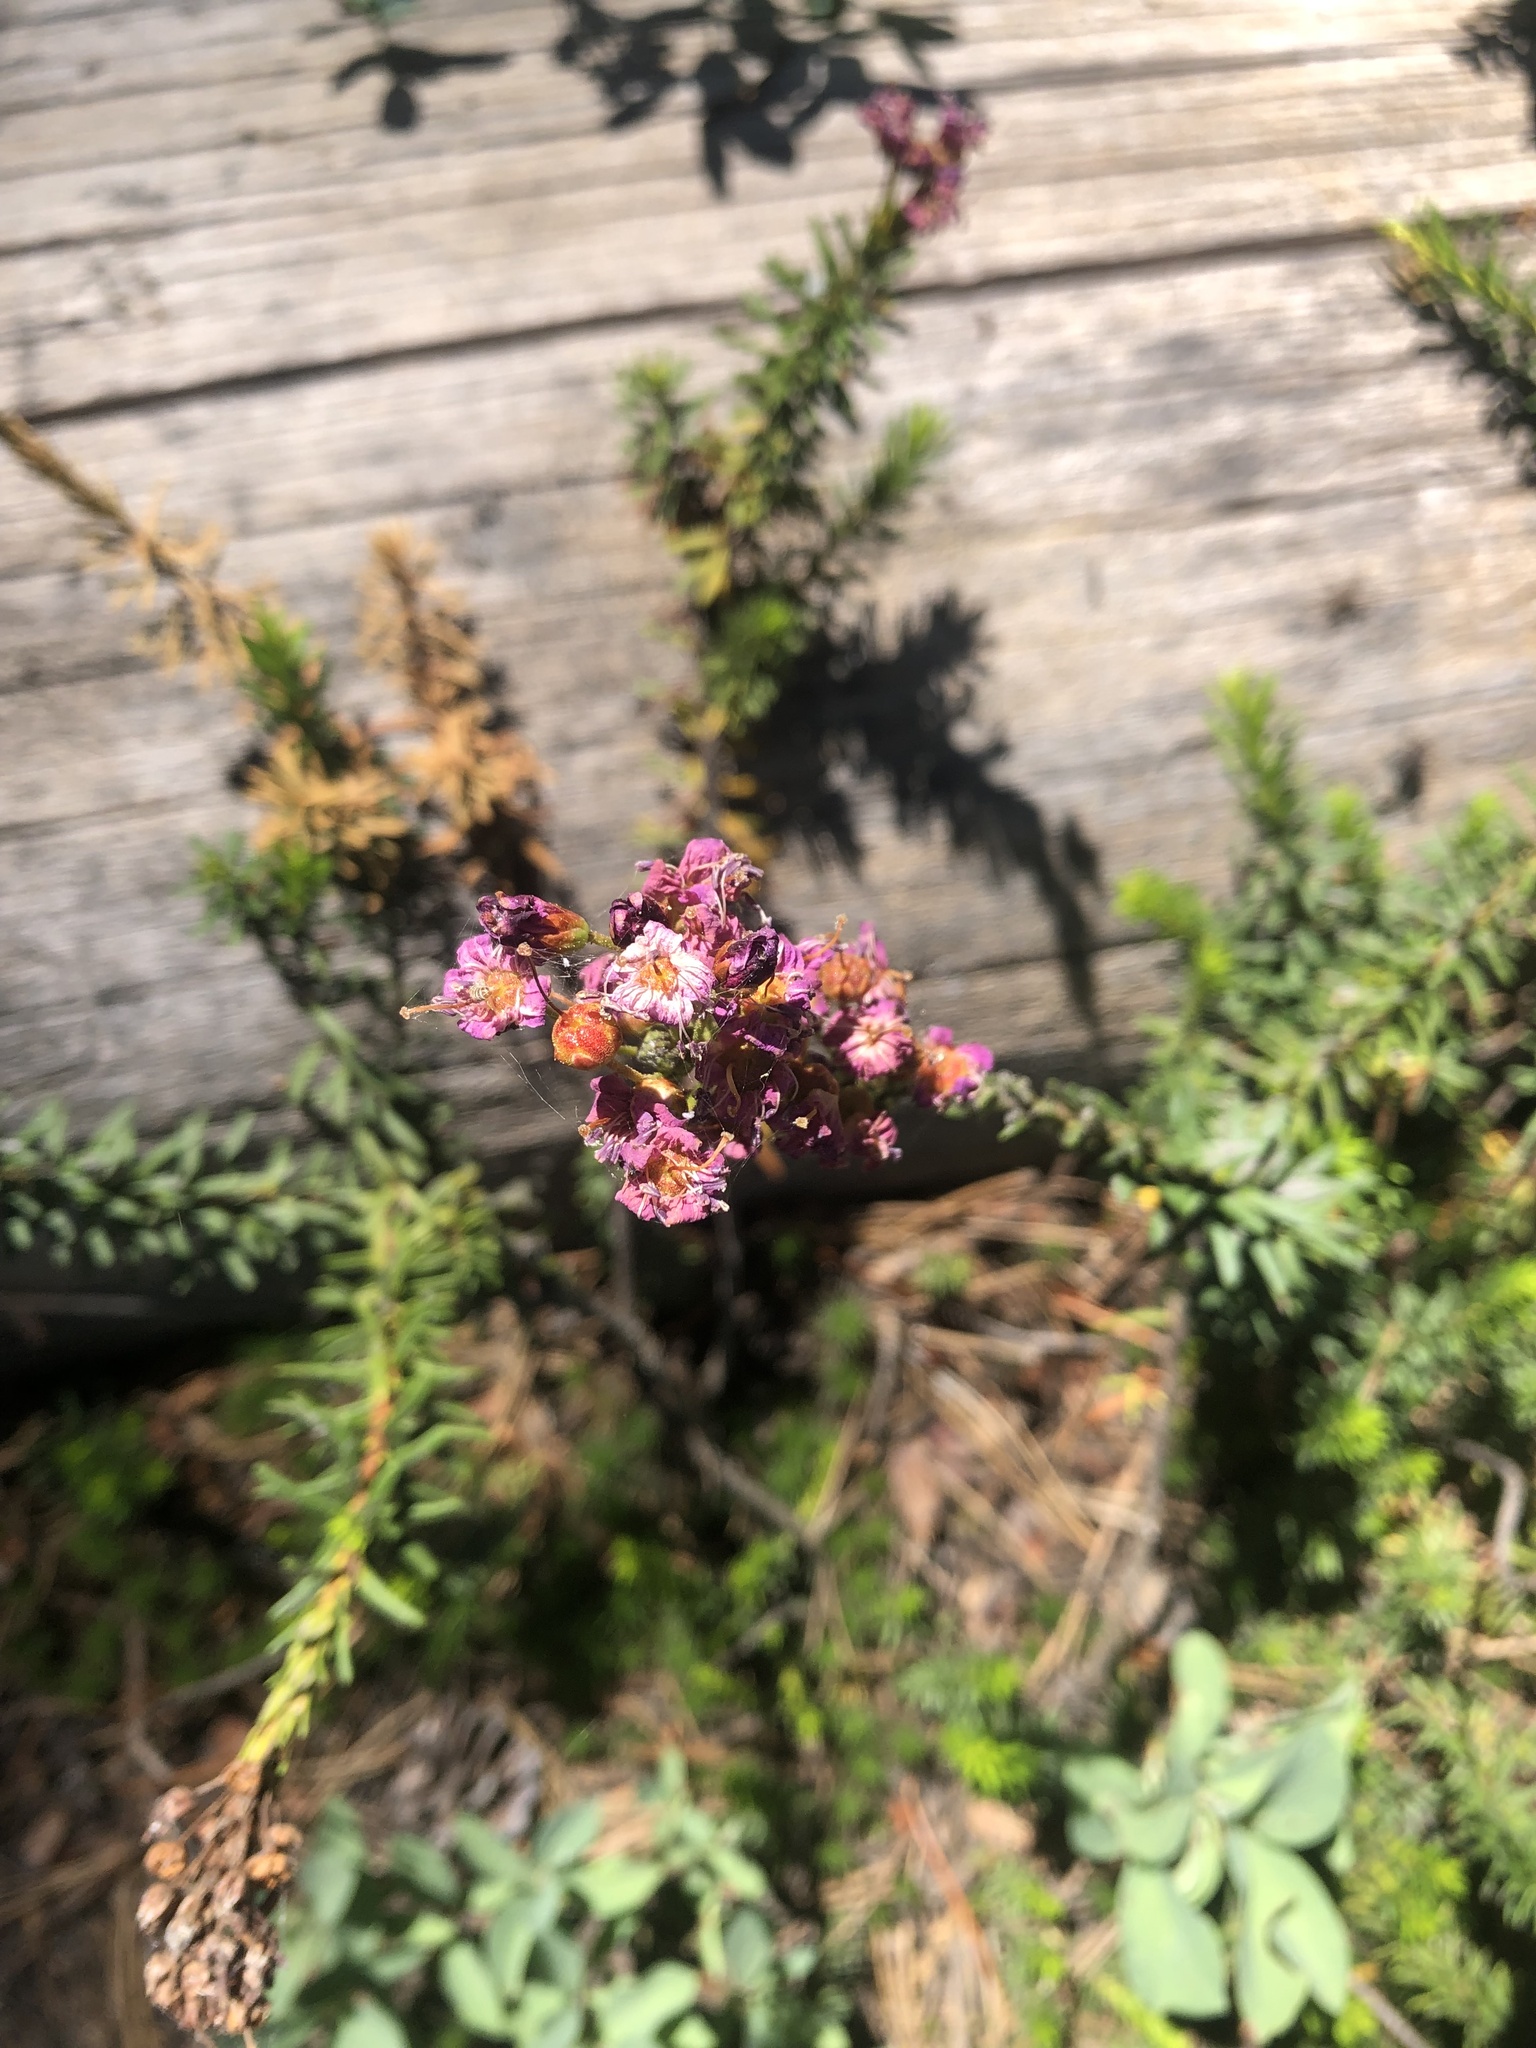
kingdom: Plantae
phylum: Tracheophyta
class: Magnoliopsida
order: Ericales
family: Ericaceae
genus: Phyllodoce
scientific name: Phyllodoce breweri
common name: Brewer's mountain-heather
